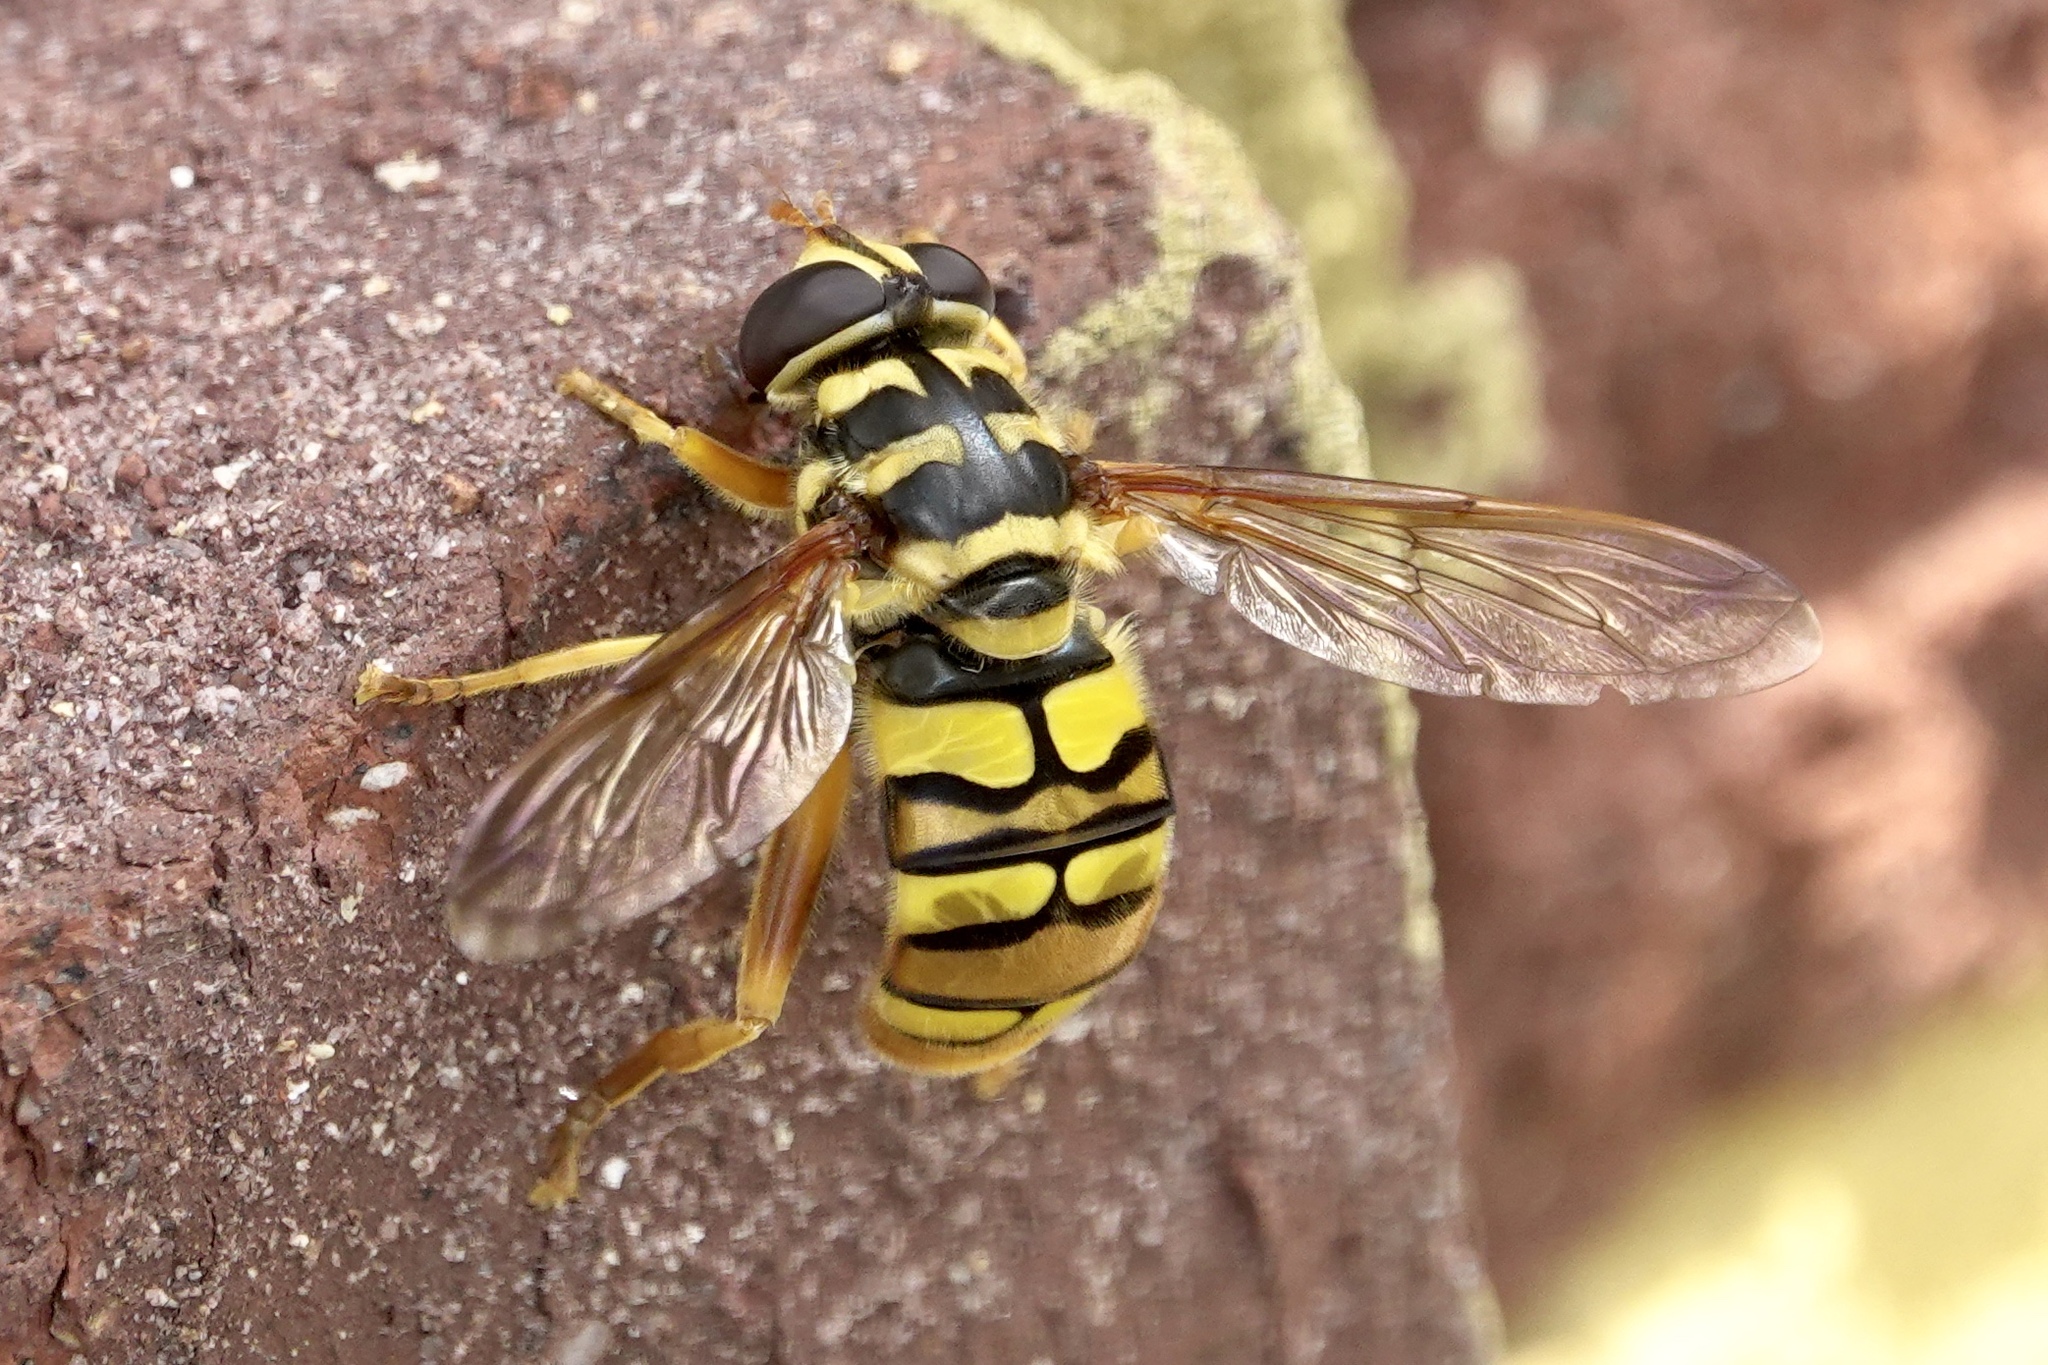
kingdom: Animalia
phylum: Arthropoda
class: Insecta
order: Diptera
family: Syrphidae
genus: Milesia
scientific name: Milesia virginiensis
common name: Virginia giant
